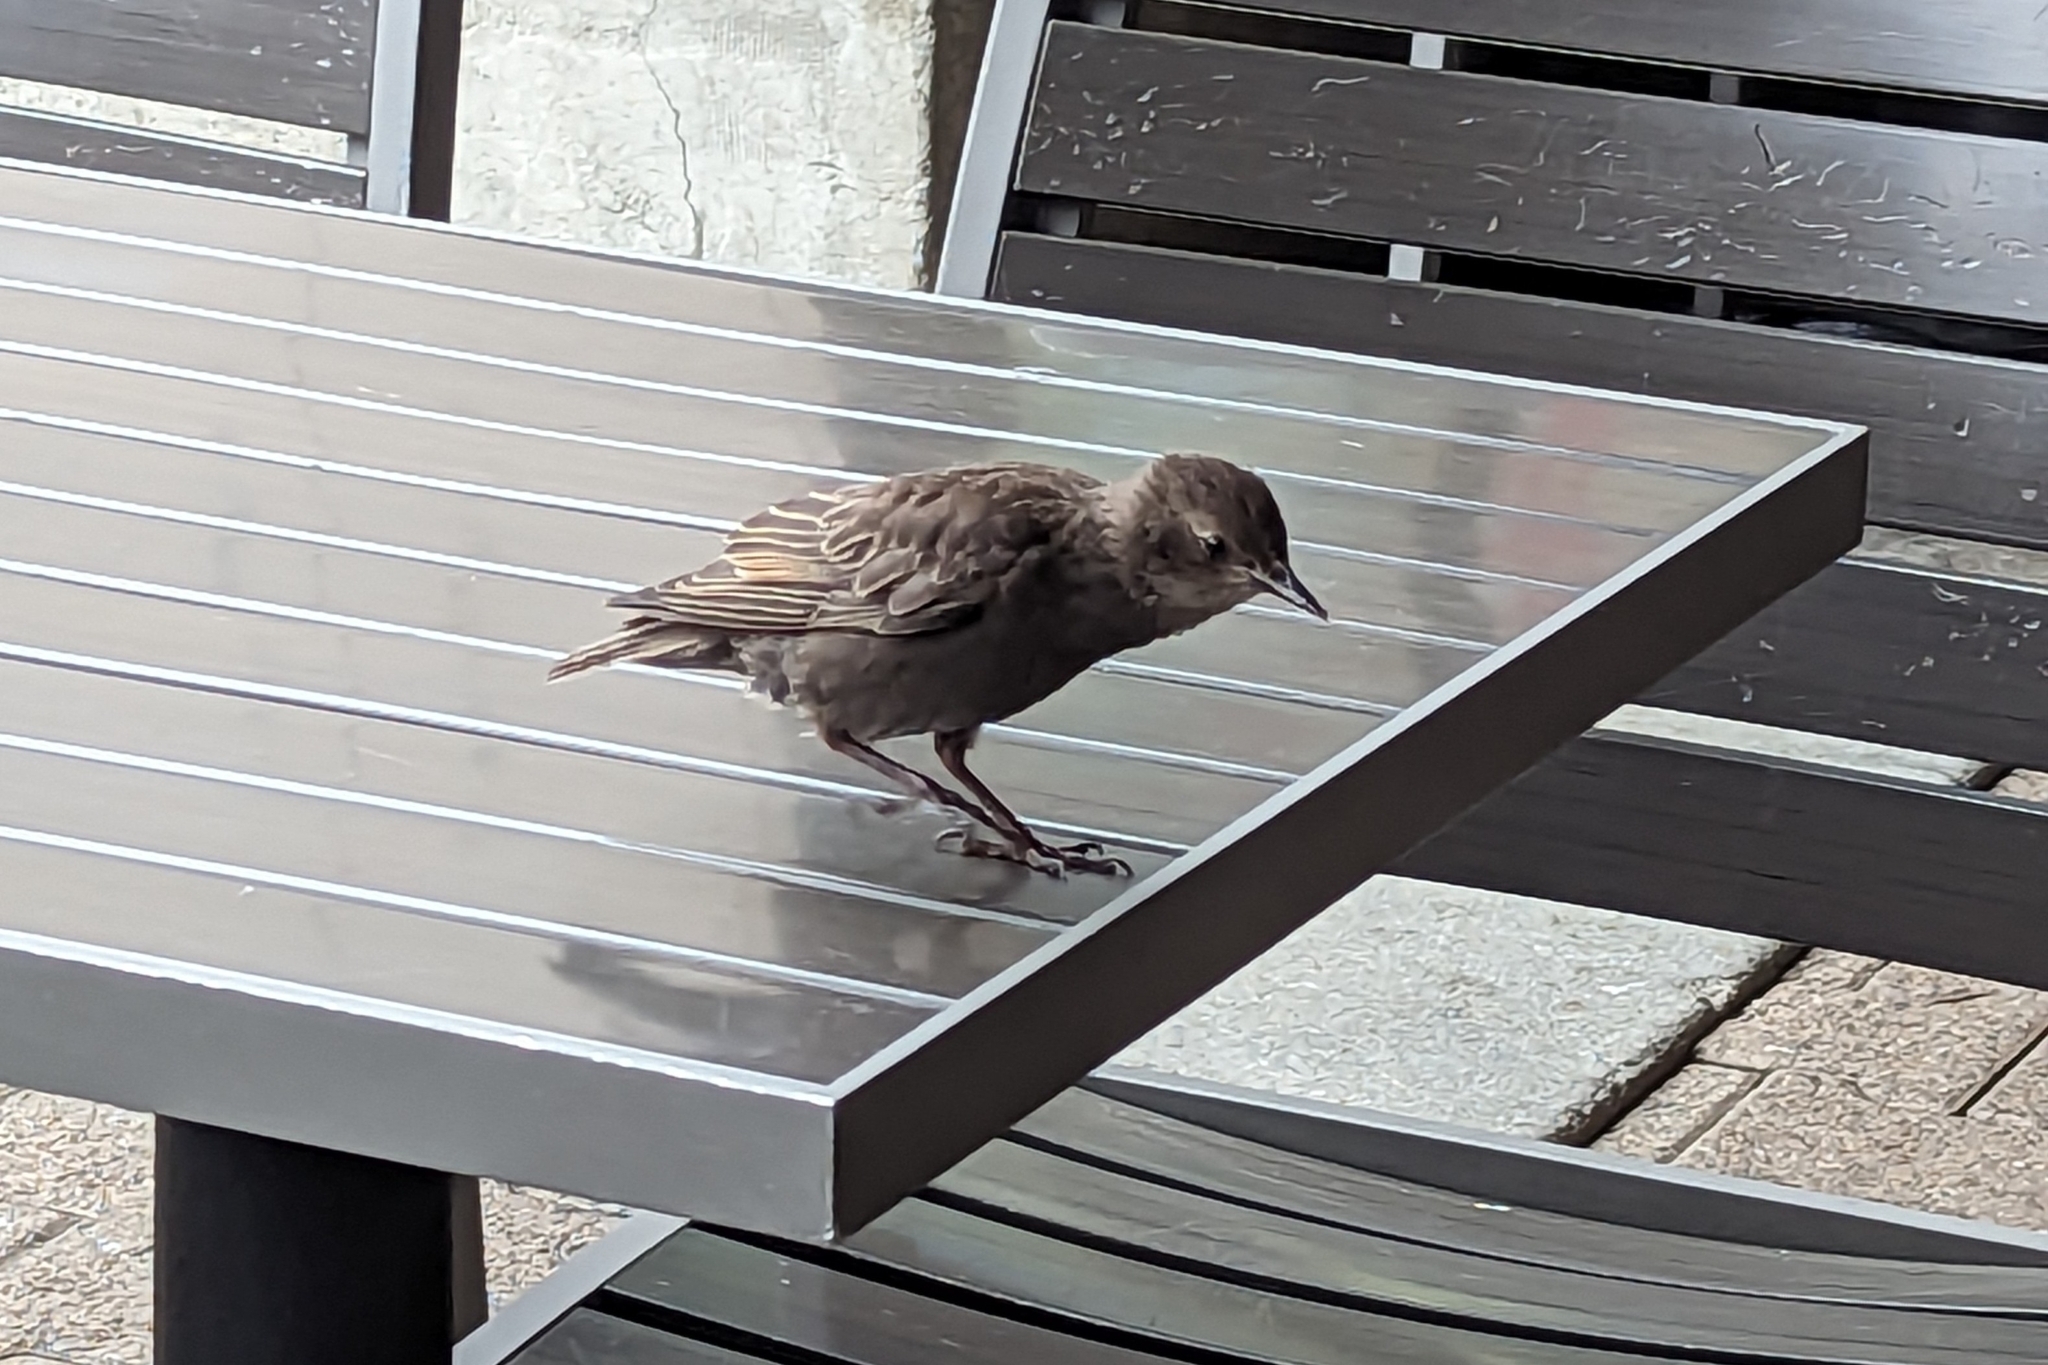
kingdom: Animalia
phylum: Chordata
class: Aves
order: Passeriformes
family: Sturnidae
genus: Sturnus
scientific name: Sturnus vulgaris
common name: Common starling
